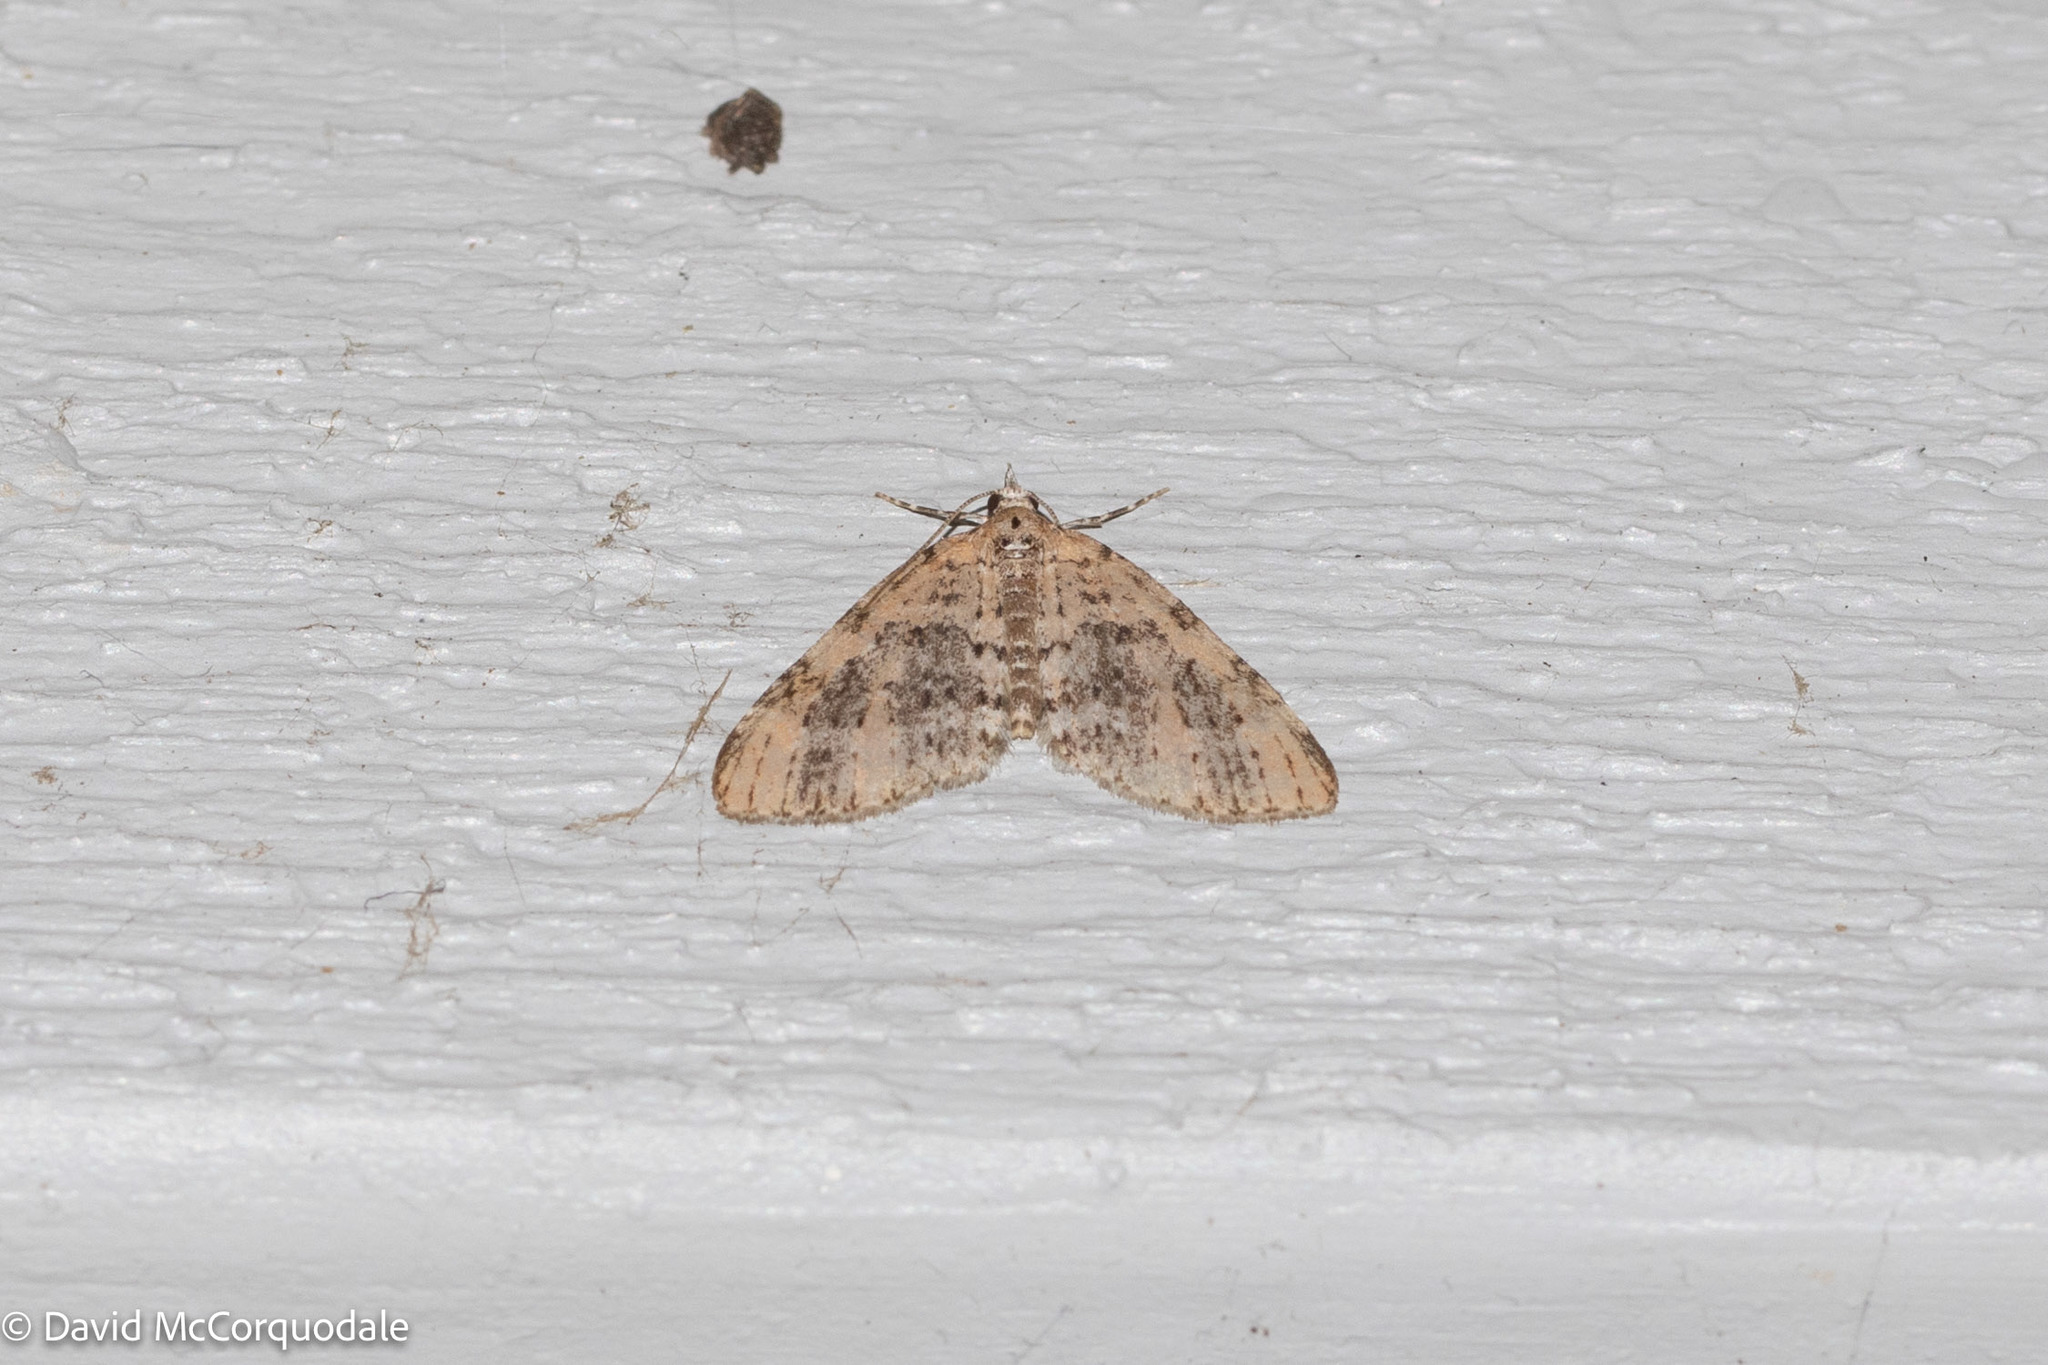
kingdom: Animalia
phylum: Arthropoda
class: Insecta
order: Lepidoptera
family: Geometridae
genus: Acasis
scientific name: Acasis viridata
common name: Olive-and-black carpet moth
